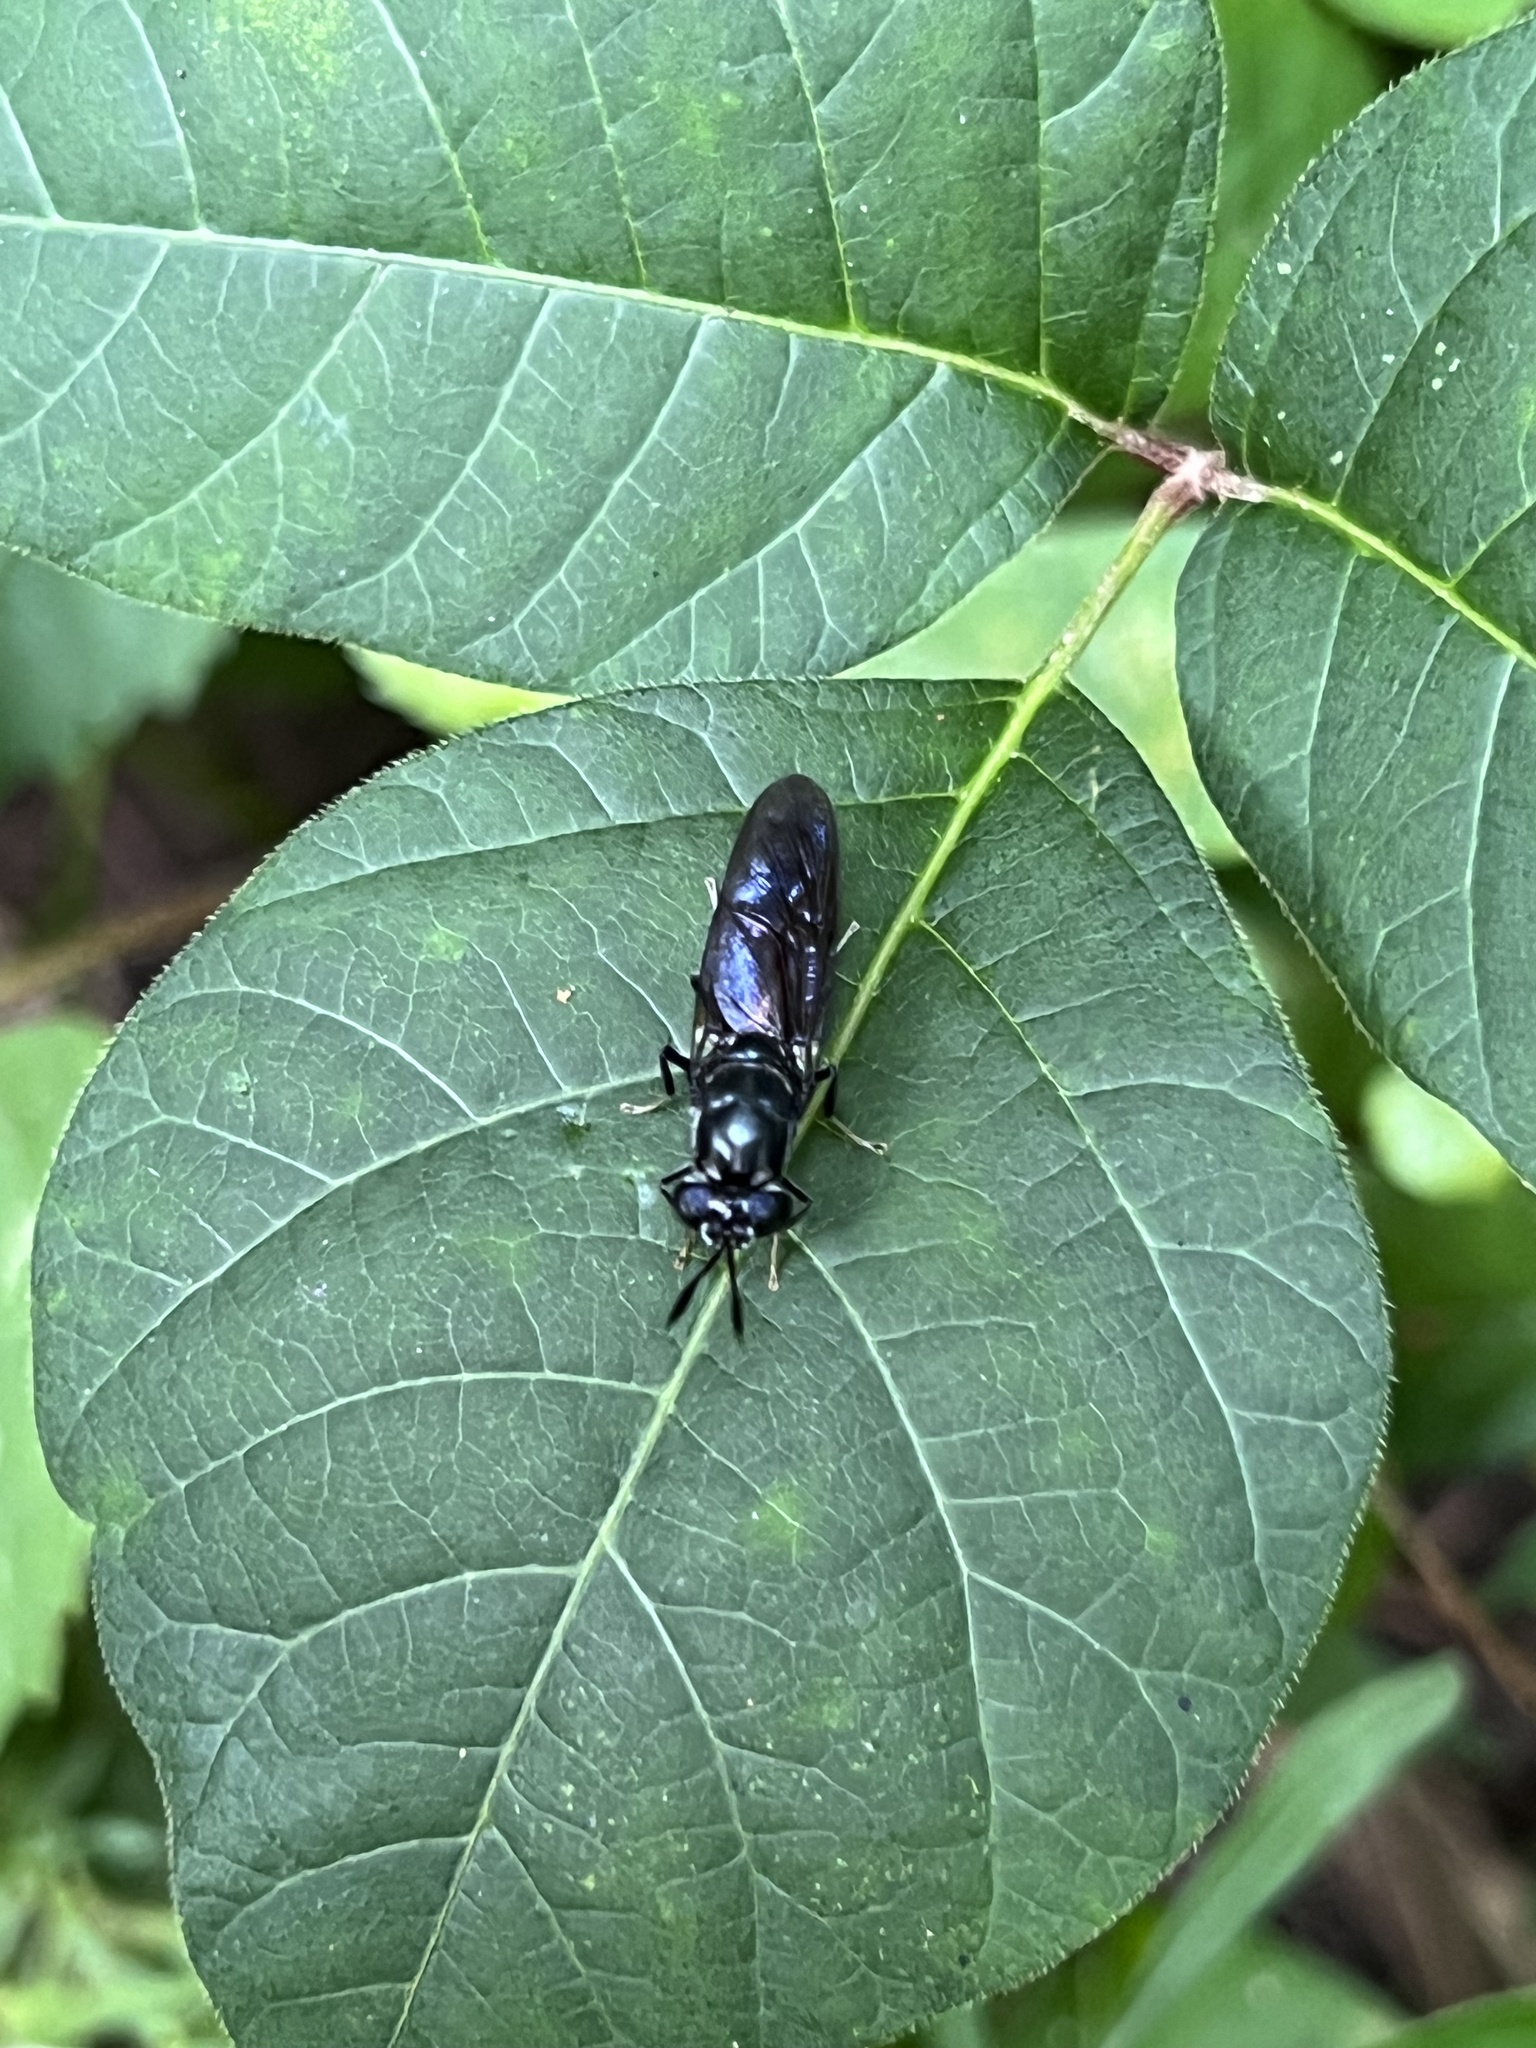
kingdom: Animalia
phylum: Arthropoda
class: Insecta
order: Diptera
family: Stratiomyidae
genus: Hermetia
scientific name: Hermetia illucens
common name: Black soldier fly
